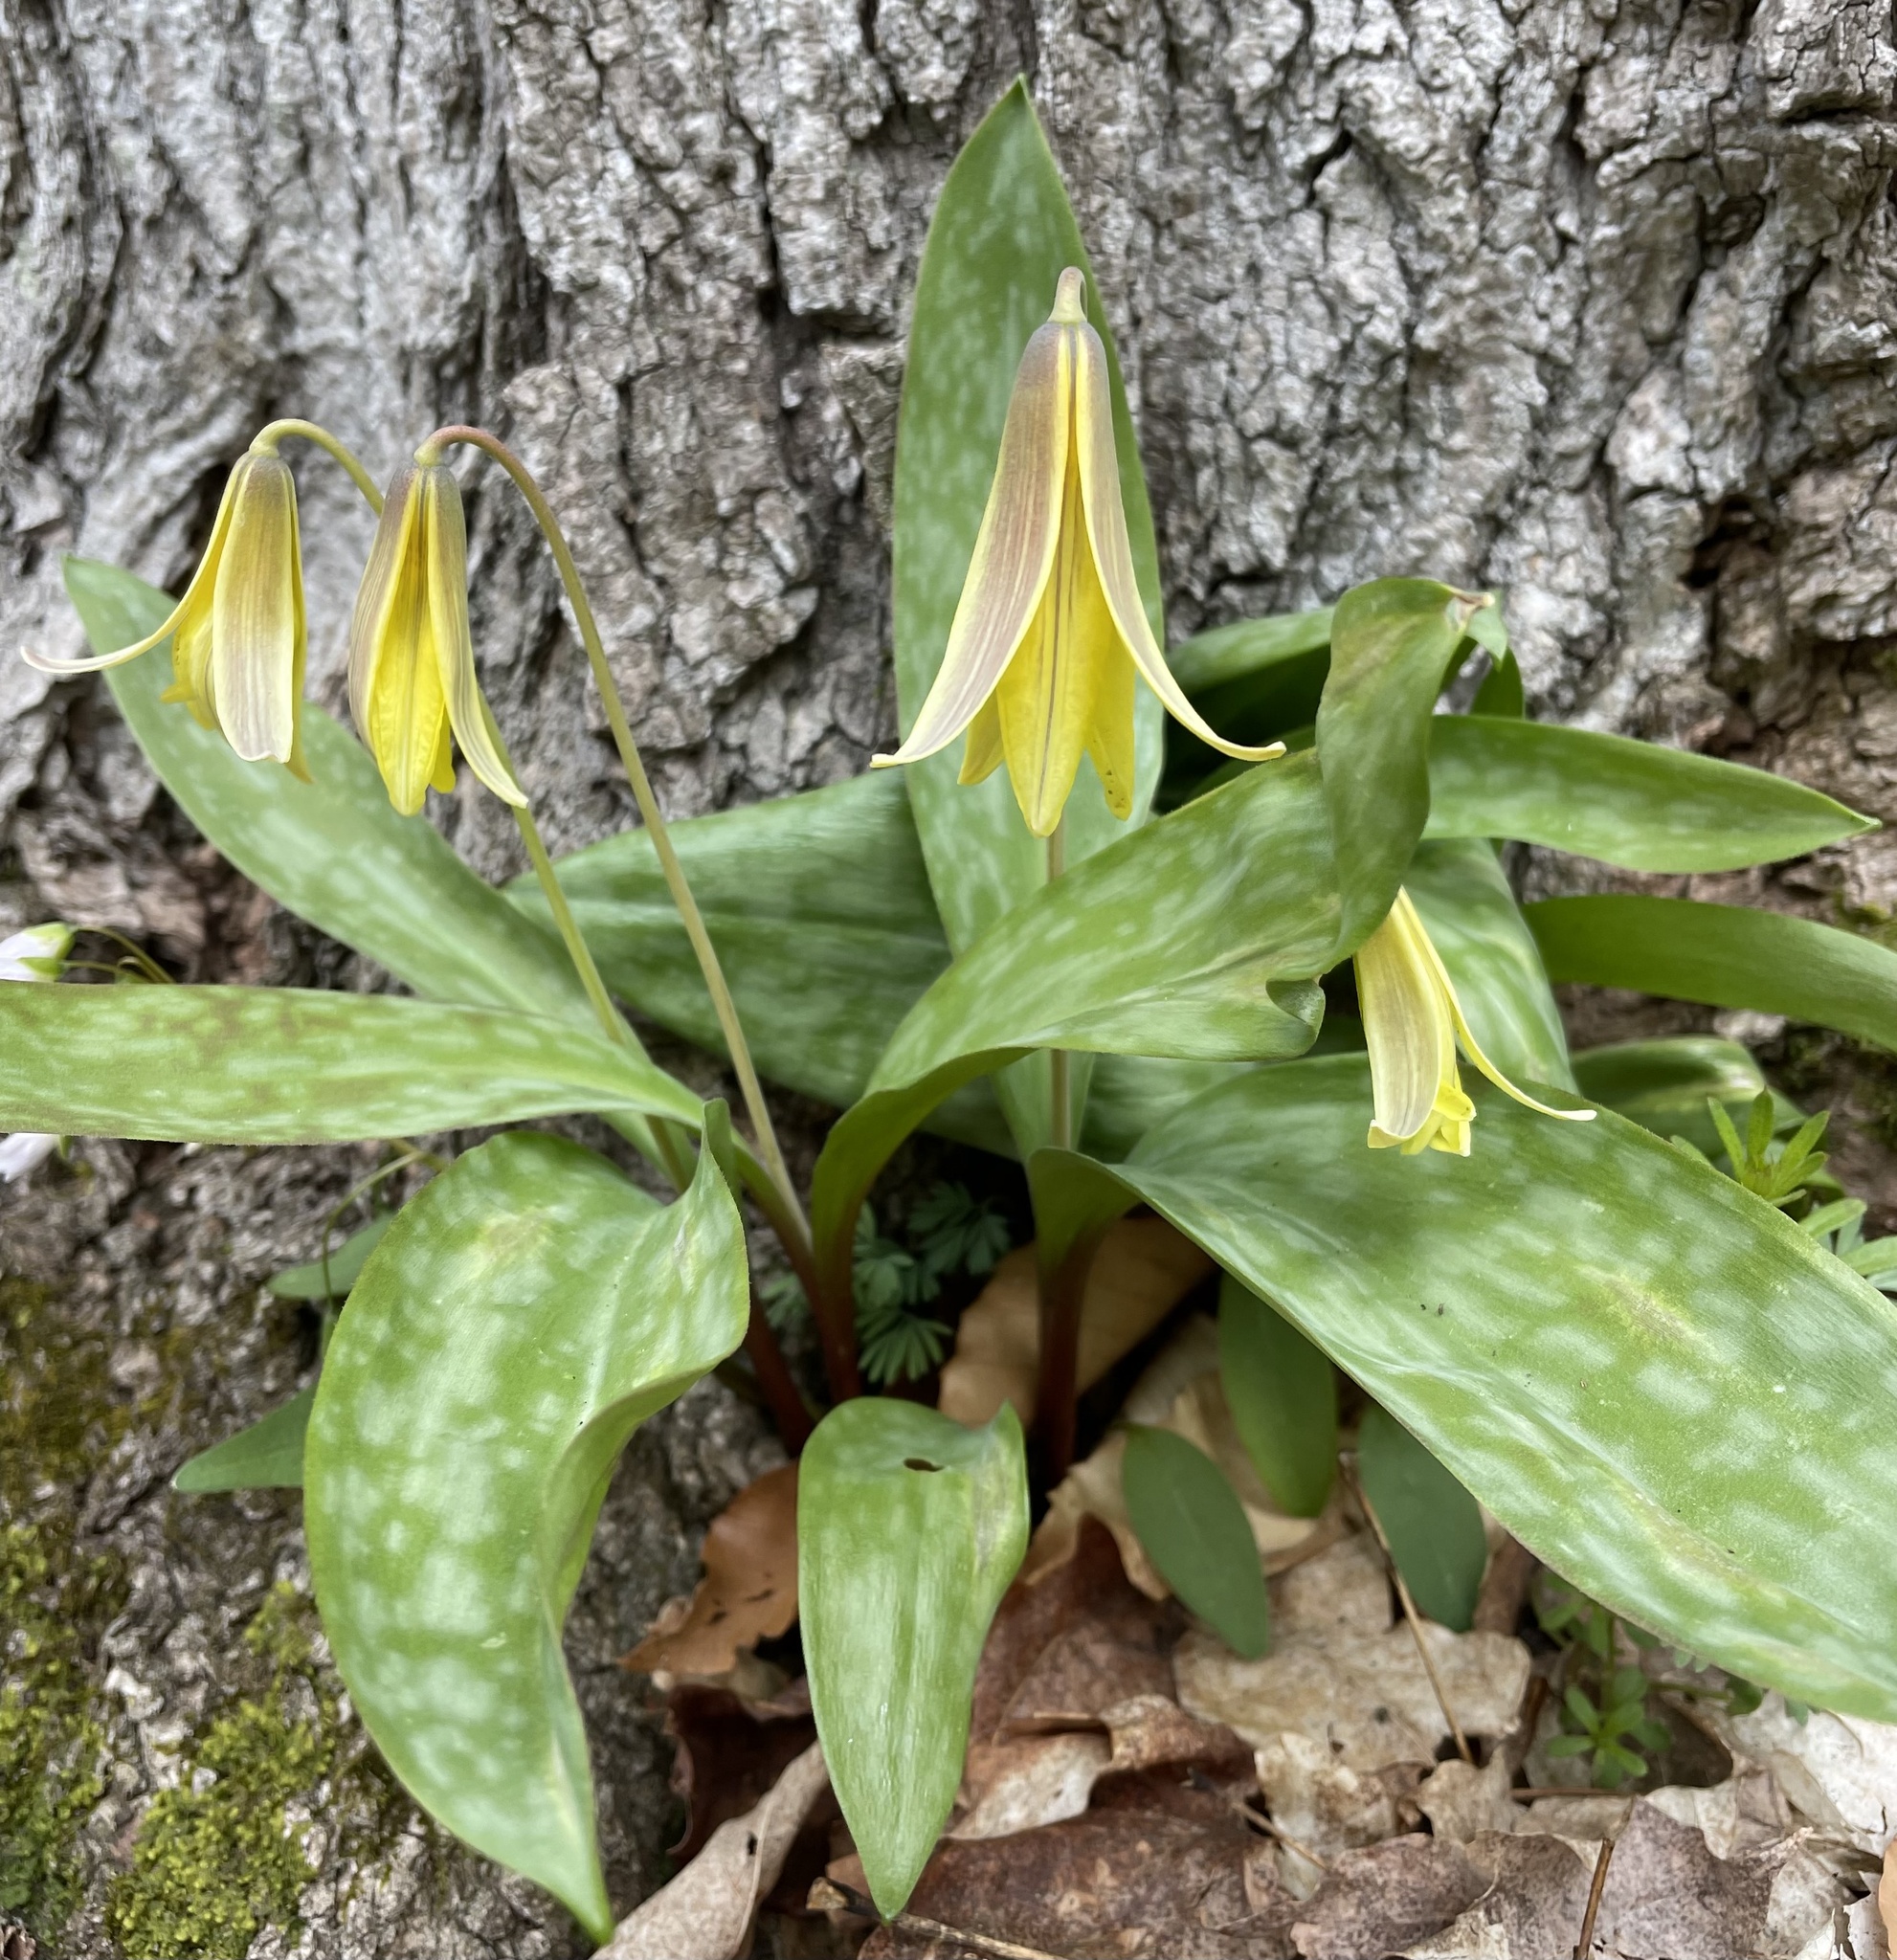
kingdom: Plantae
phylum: Tracheophyta
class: Liliopsida
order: Liliales
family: Liliaceae
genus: Erythronium
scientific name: Erythronium americanum
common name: Yellow adder's-tongue
